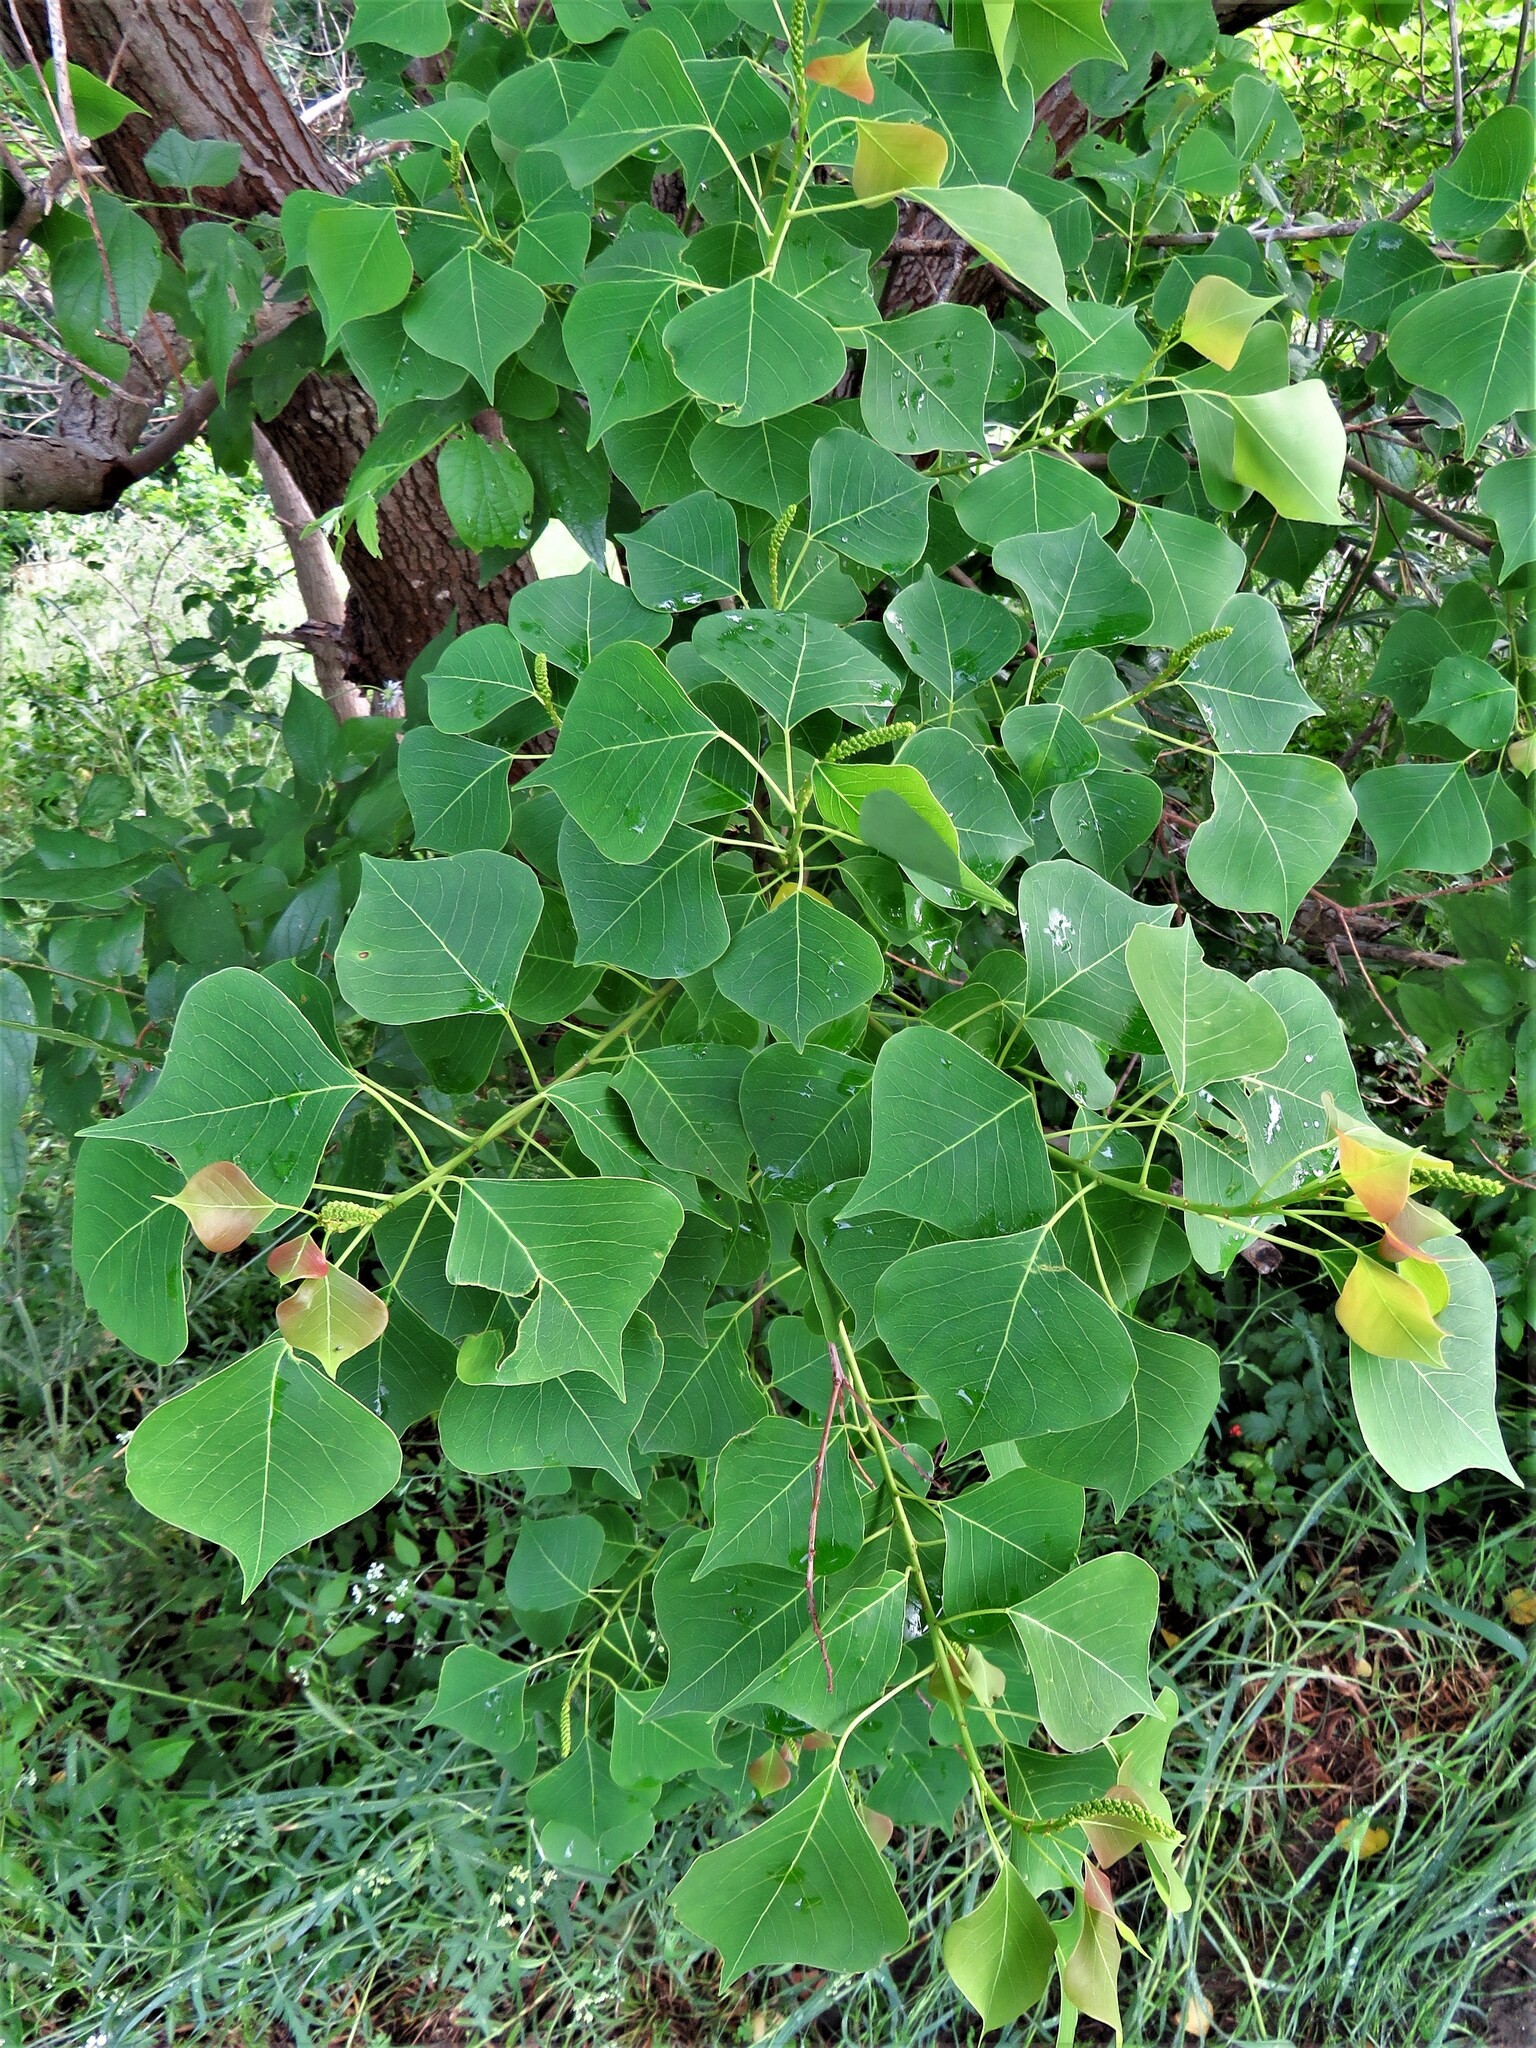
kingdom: Plantae
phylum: Tracheophyta
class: Magnoliopsida
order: Malpighiales
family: Euphorbiaceae
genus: Triadica
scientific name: Triadica sebifera
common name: Chinese tallow
